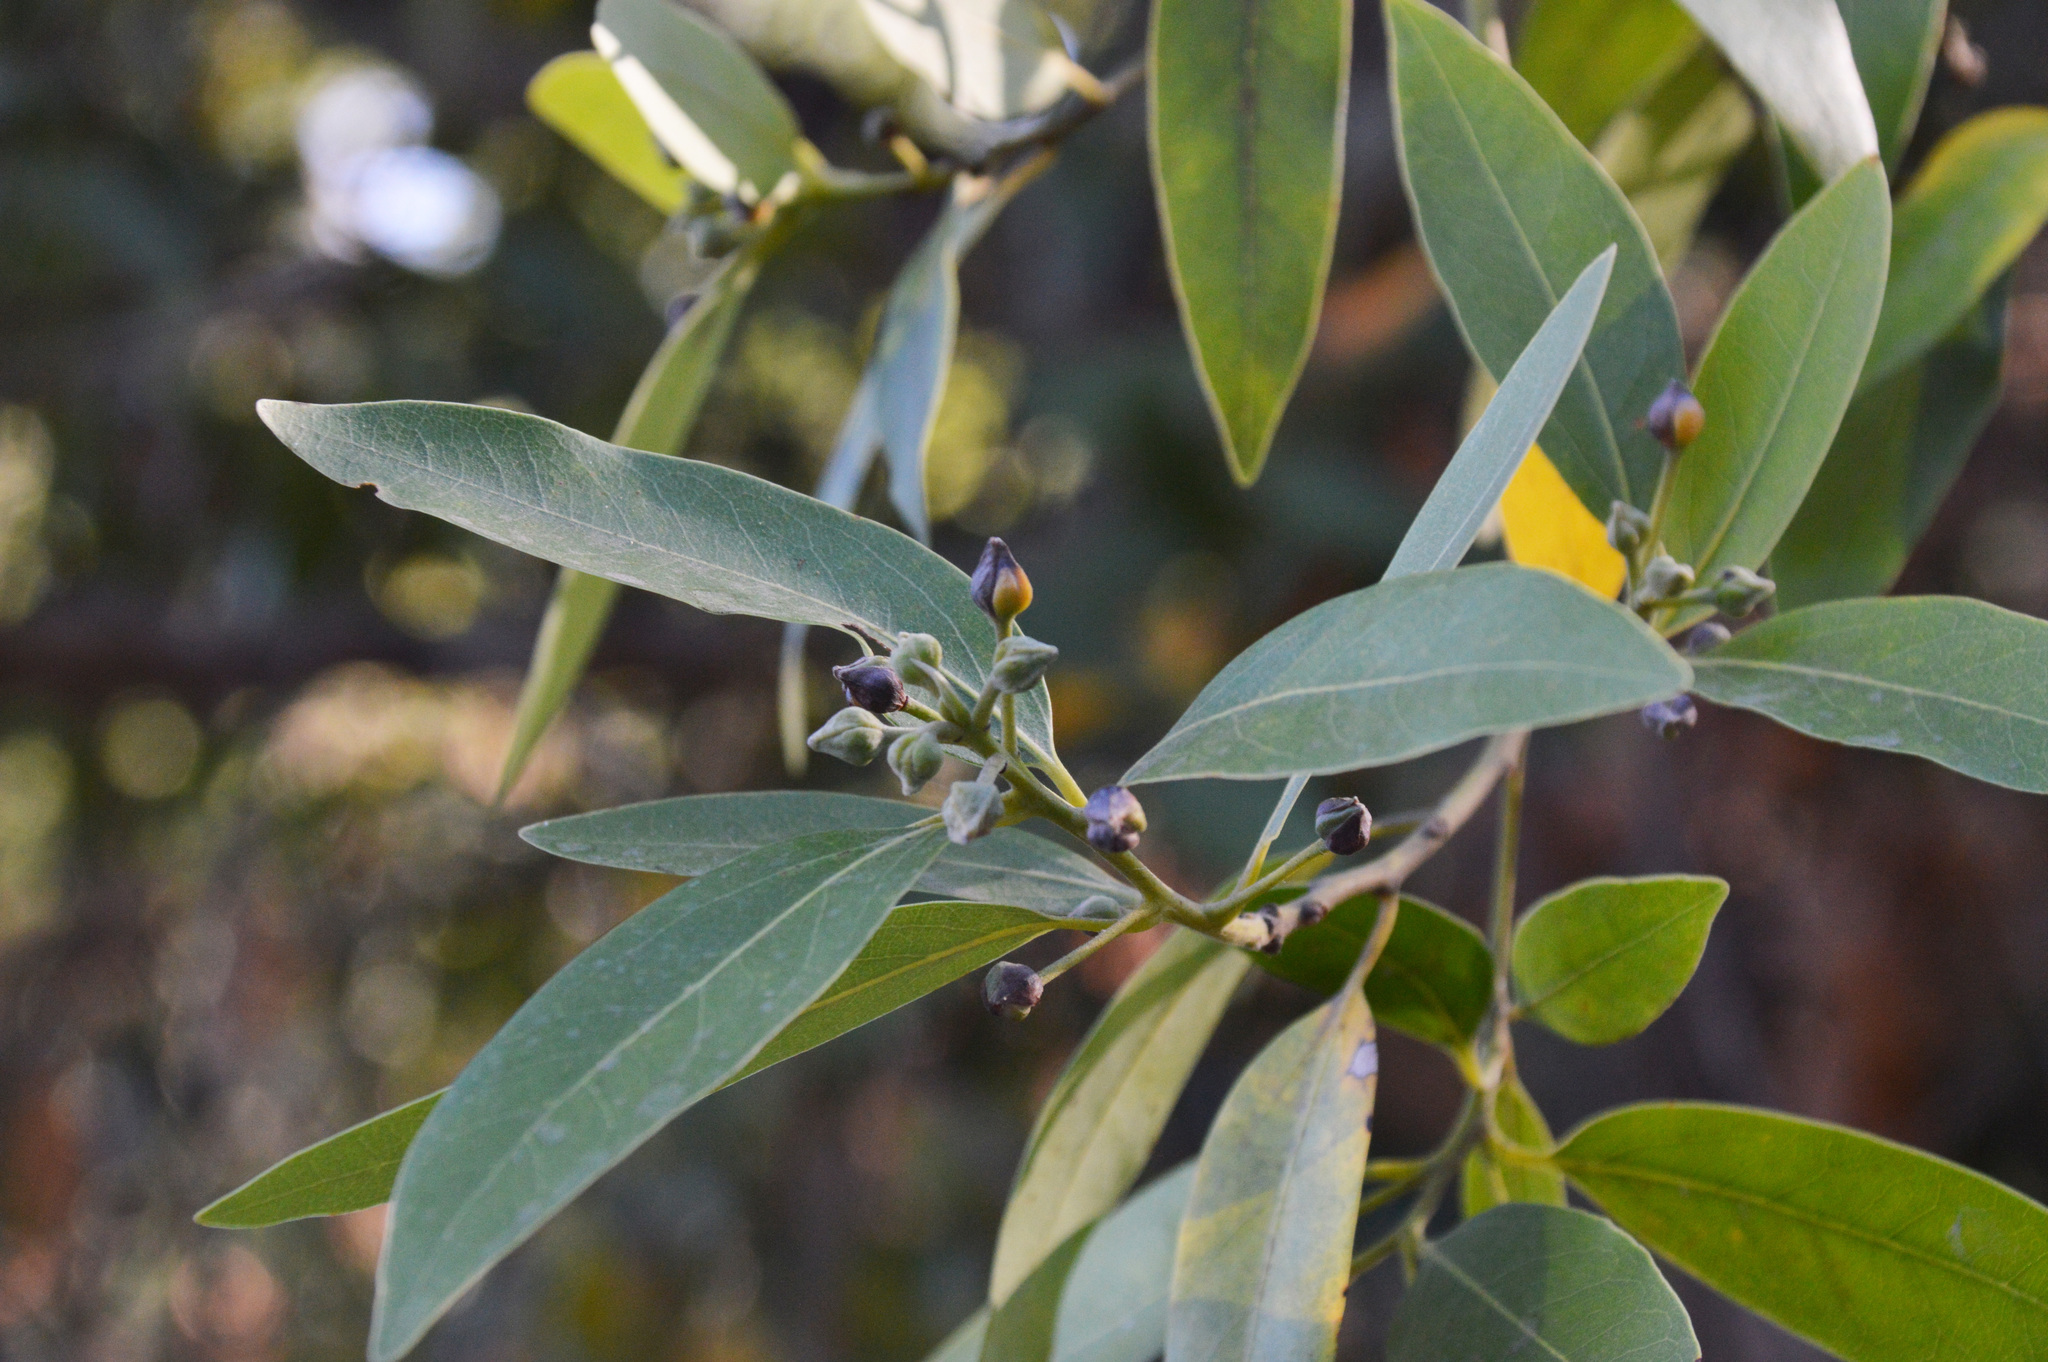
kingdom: Plantae
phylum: Tracheophyta
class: Magnoliopsida
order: Laurales
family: Lauraceae
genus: Umbellularia
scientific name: Umbellularia californica
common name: California bay
